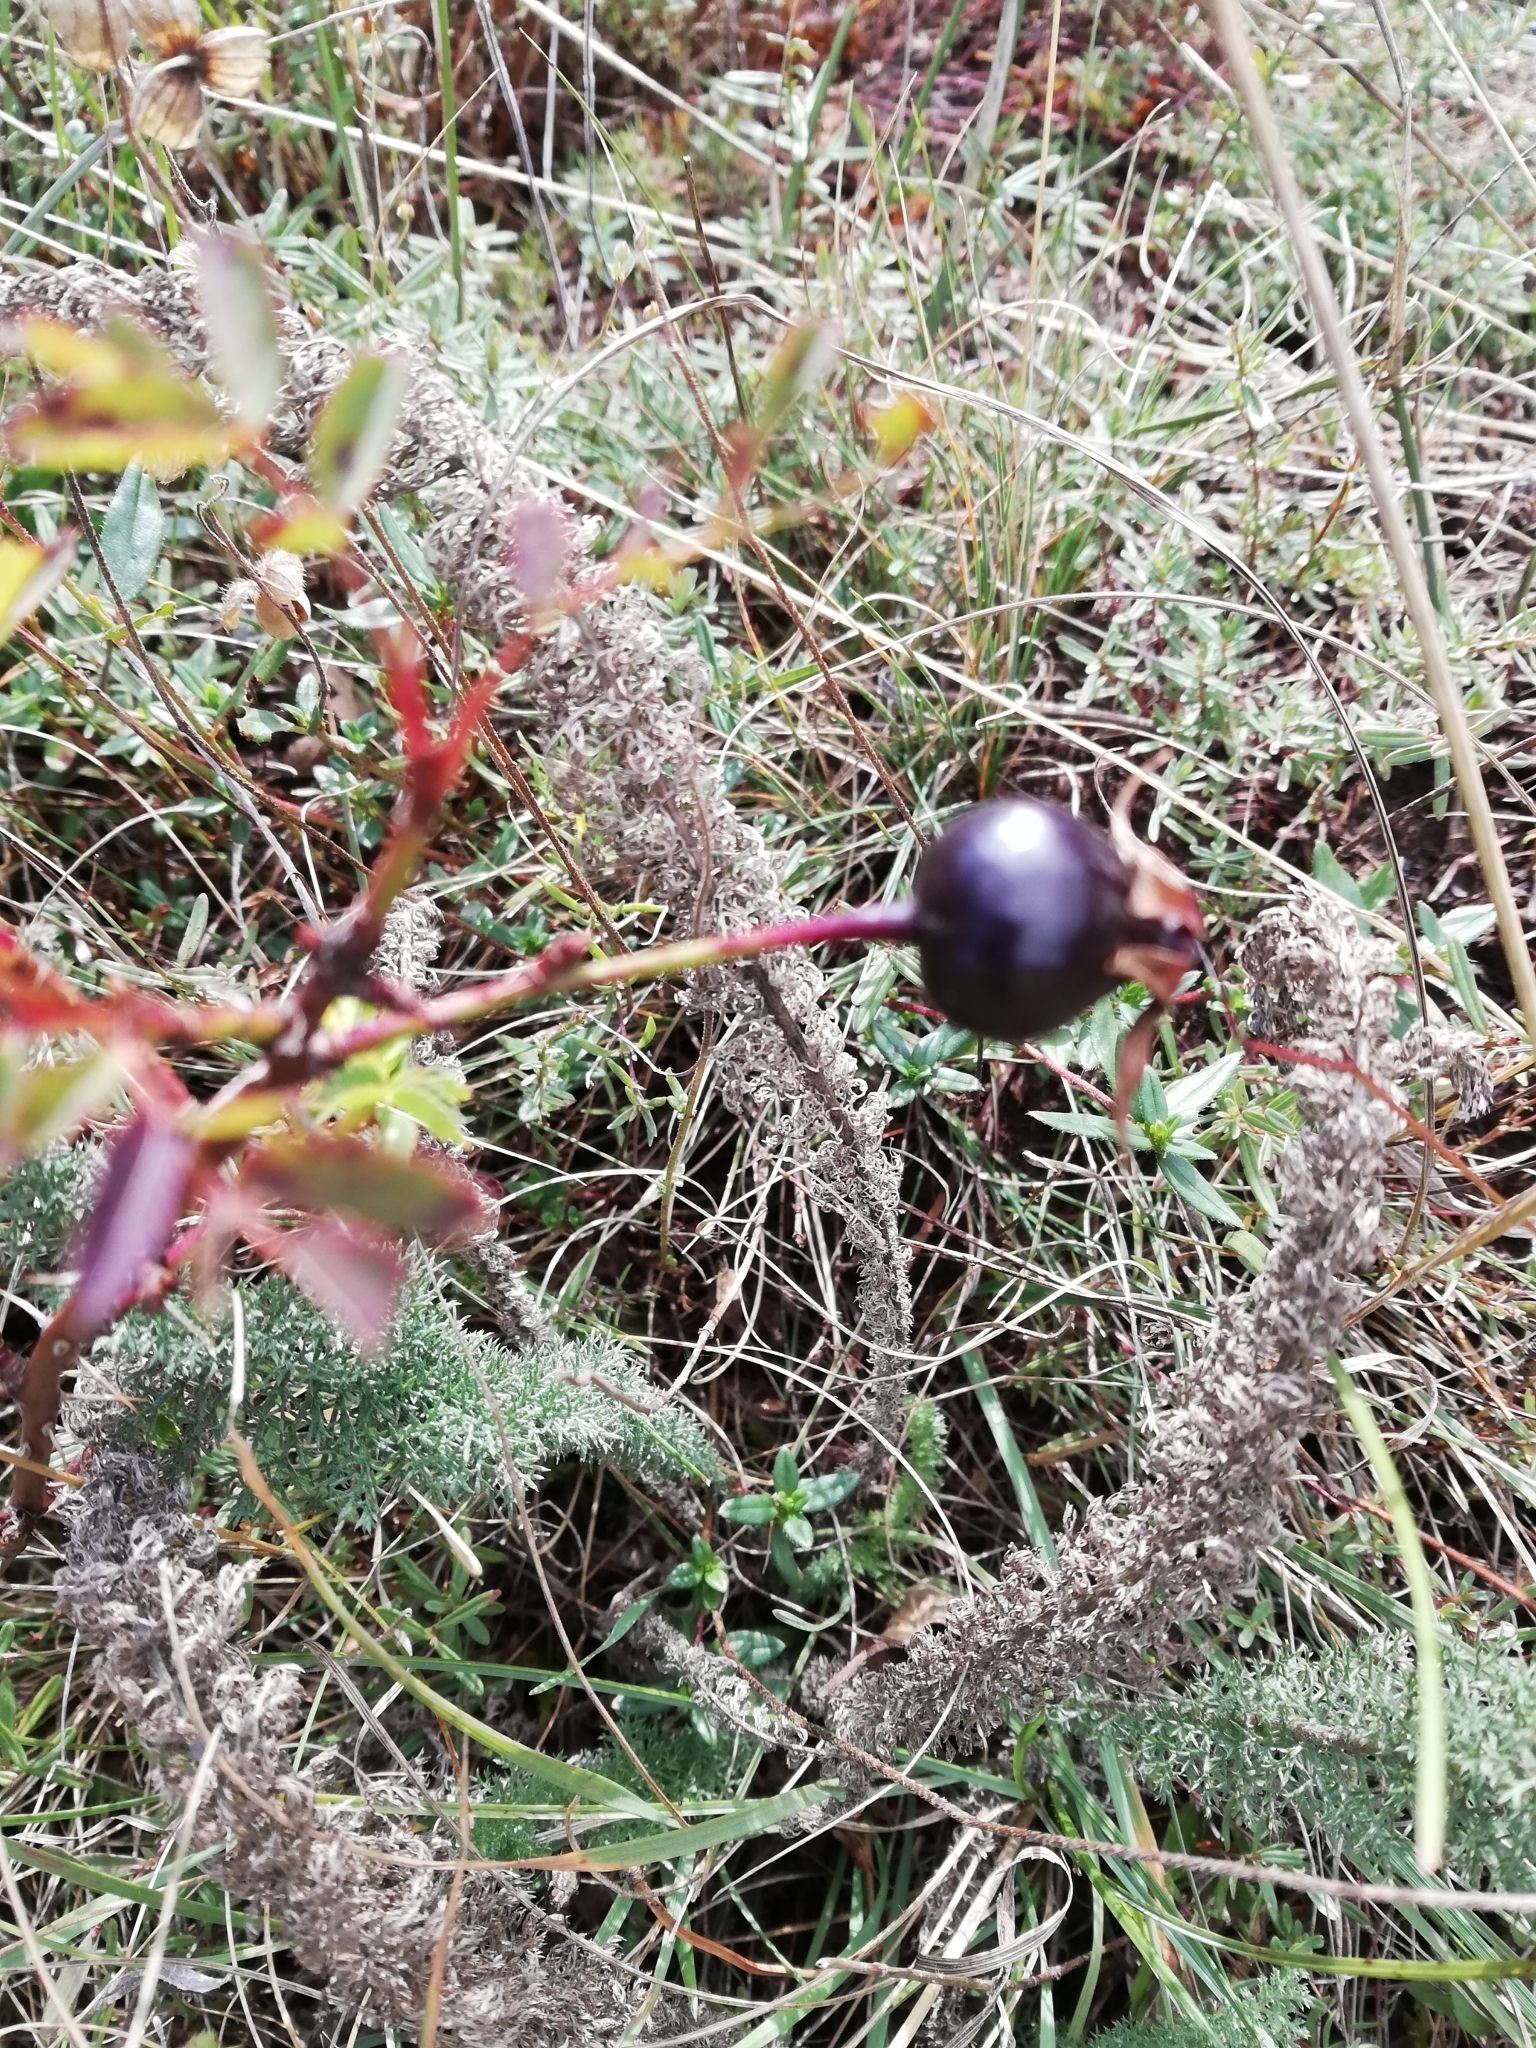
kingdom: Plantae
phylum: Tracheophyta
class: Magnoliopsida
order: Rosales
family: Rosaceae
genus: Rosa
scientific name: Rosa spinosissima
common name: Burnet rose
